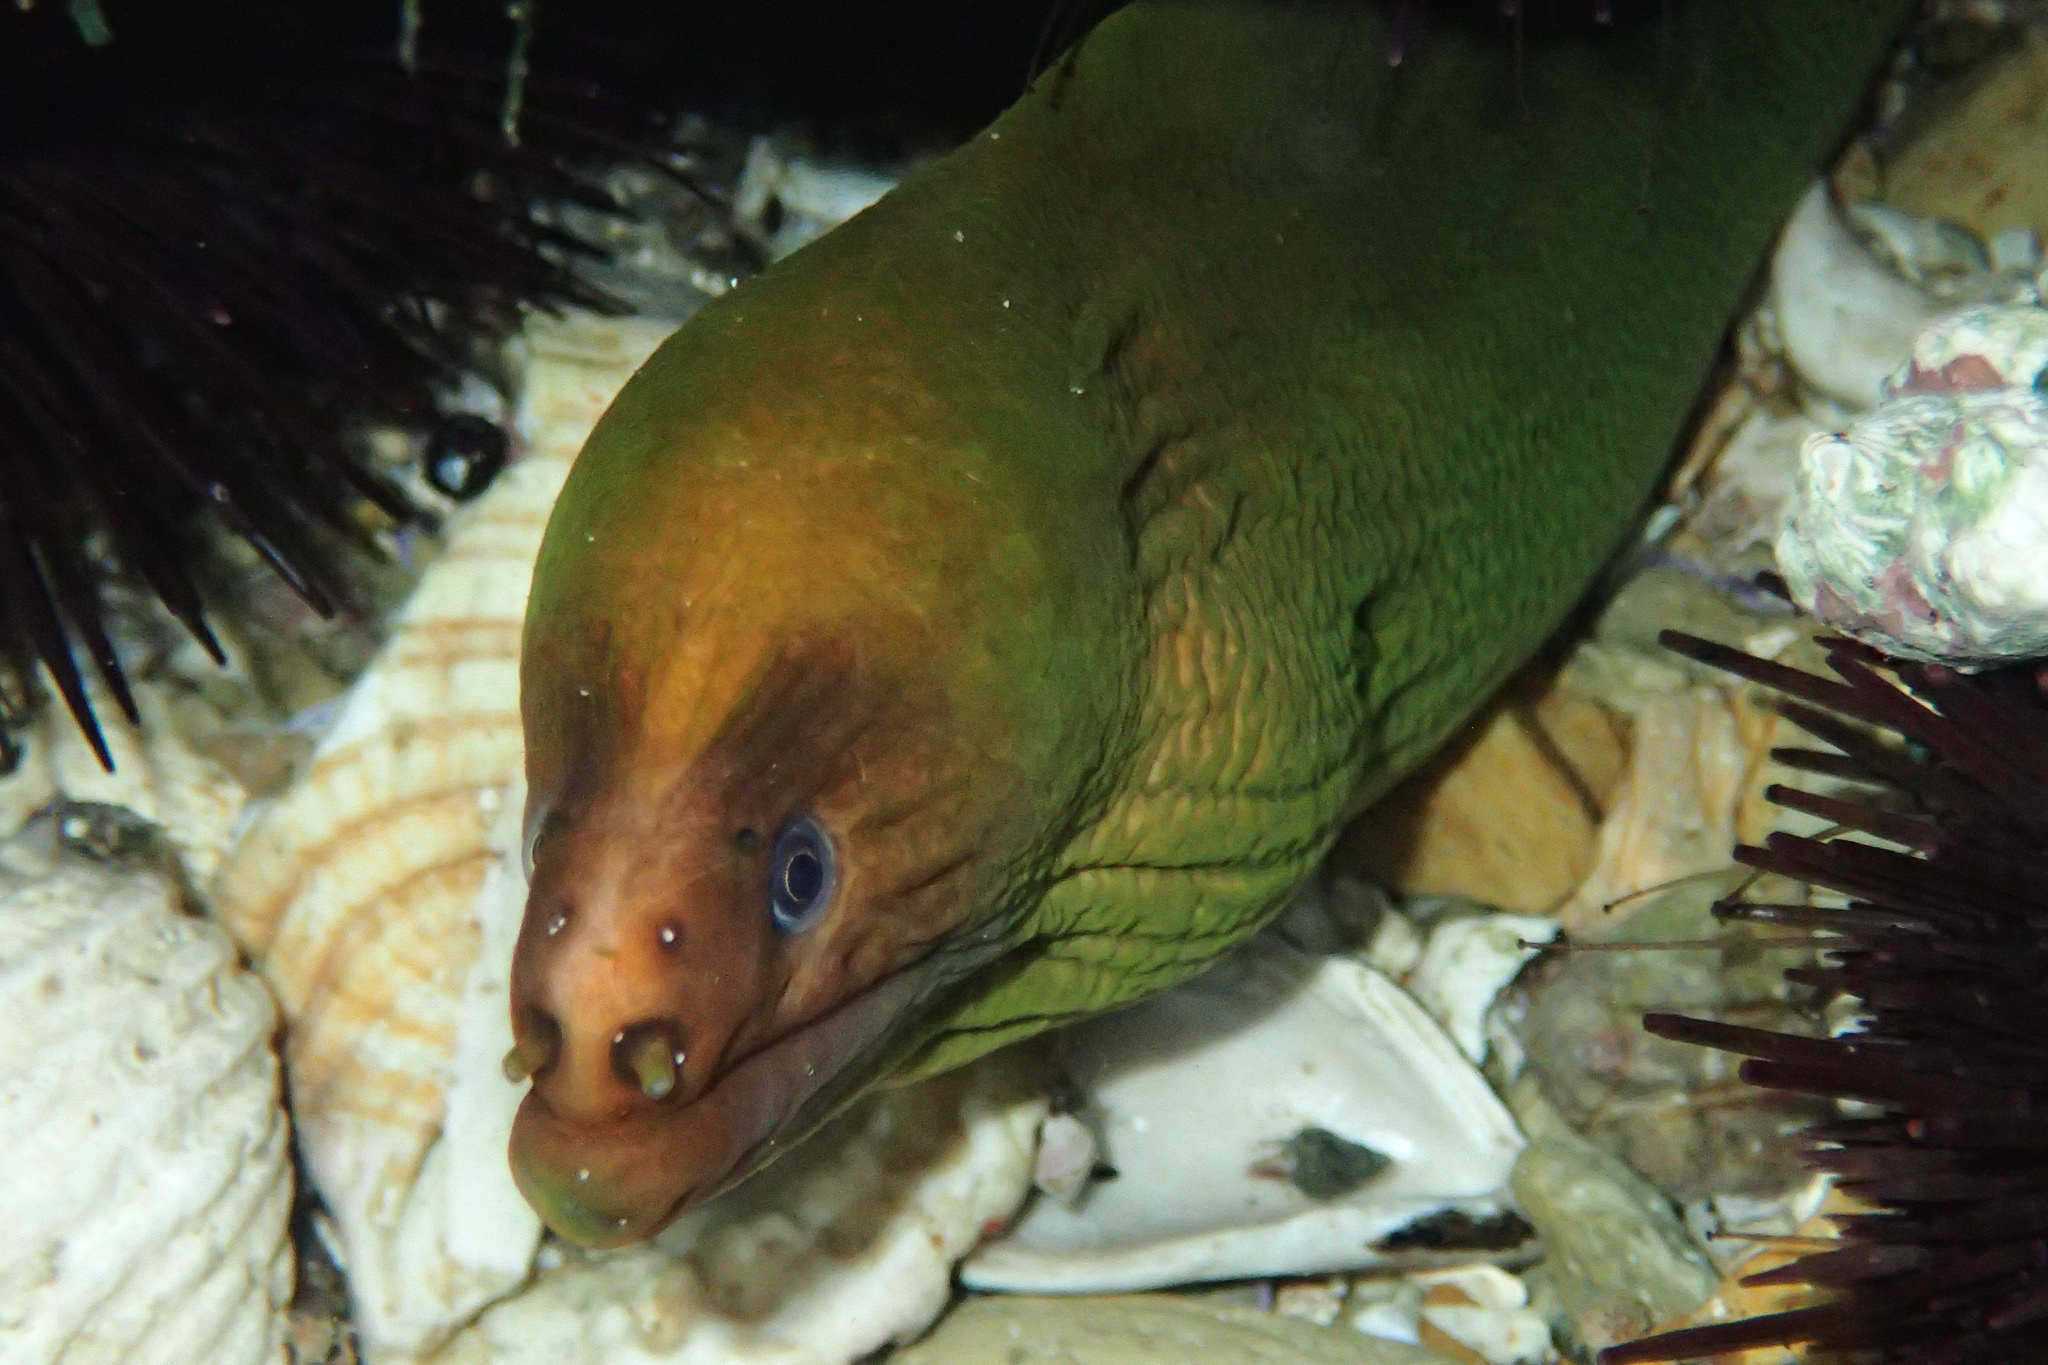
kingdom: Animalia
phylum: Chordata
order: Anguilliformes
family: Muraenidae
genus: Gymnothorax
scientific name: Gymnothorax prasinus
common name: Yellow moray
